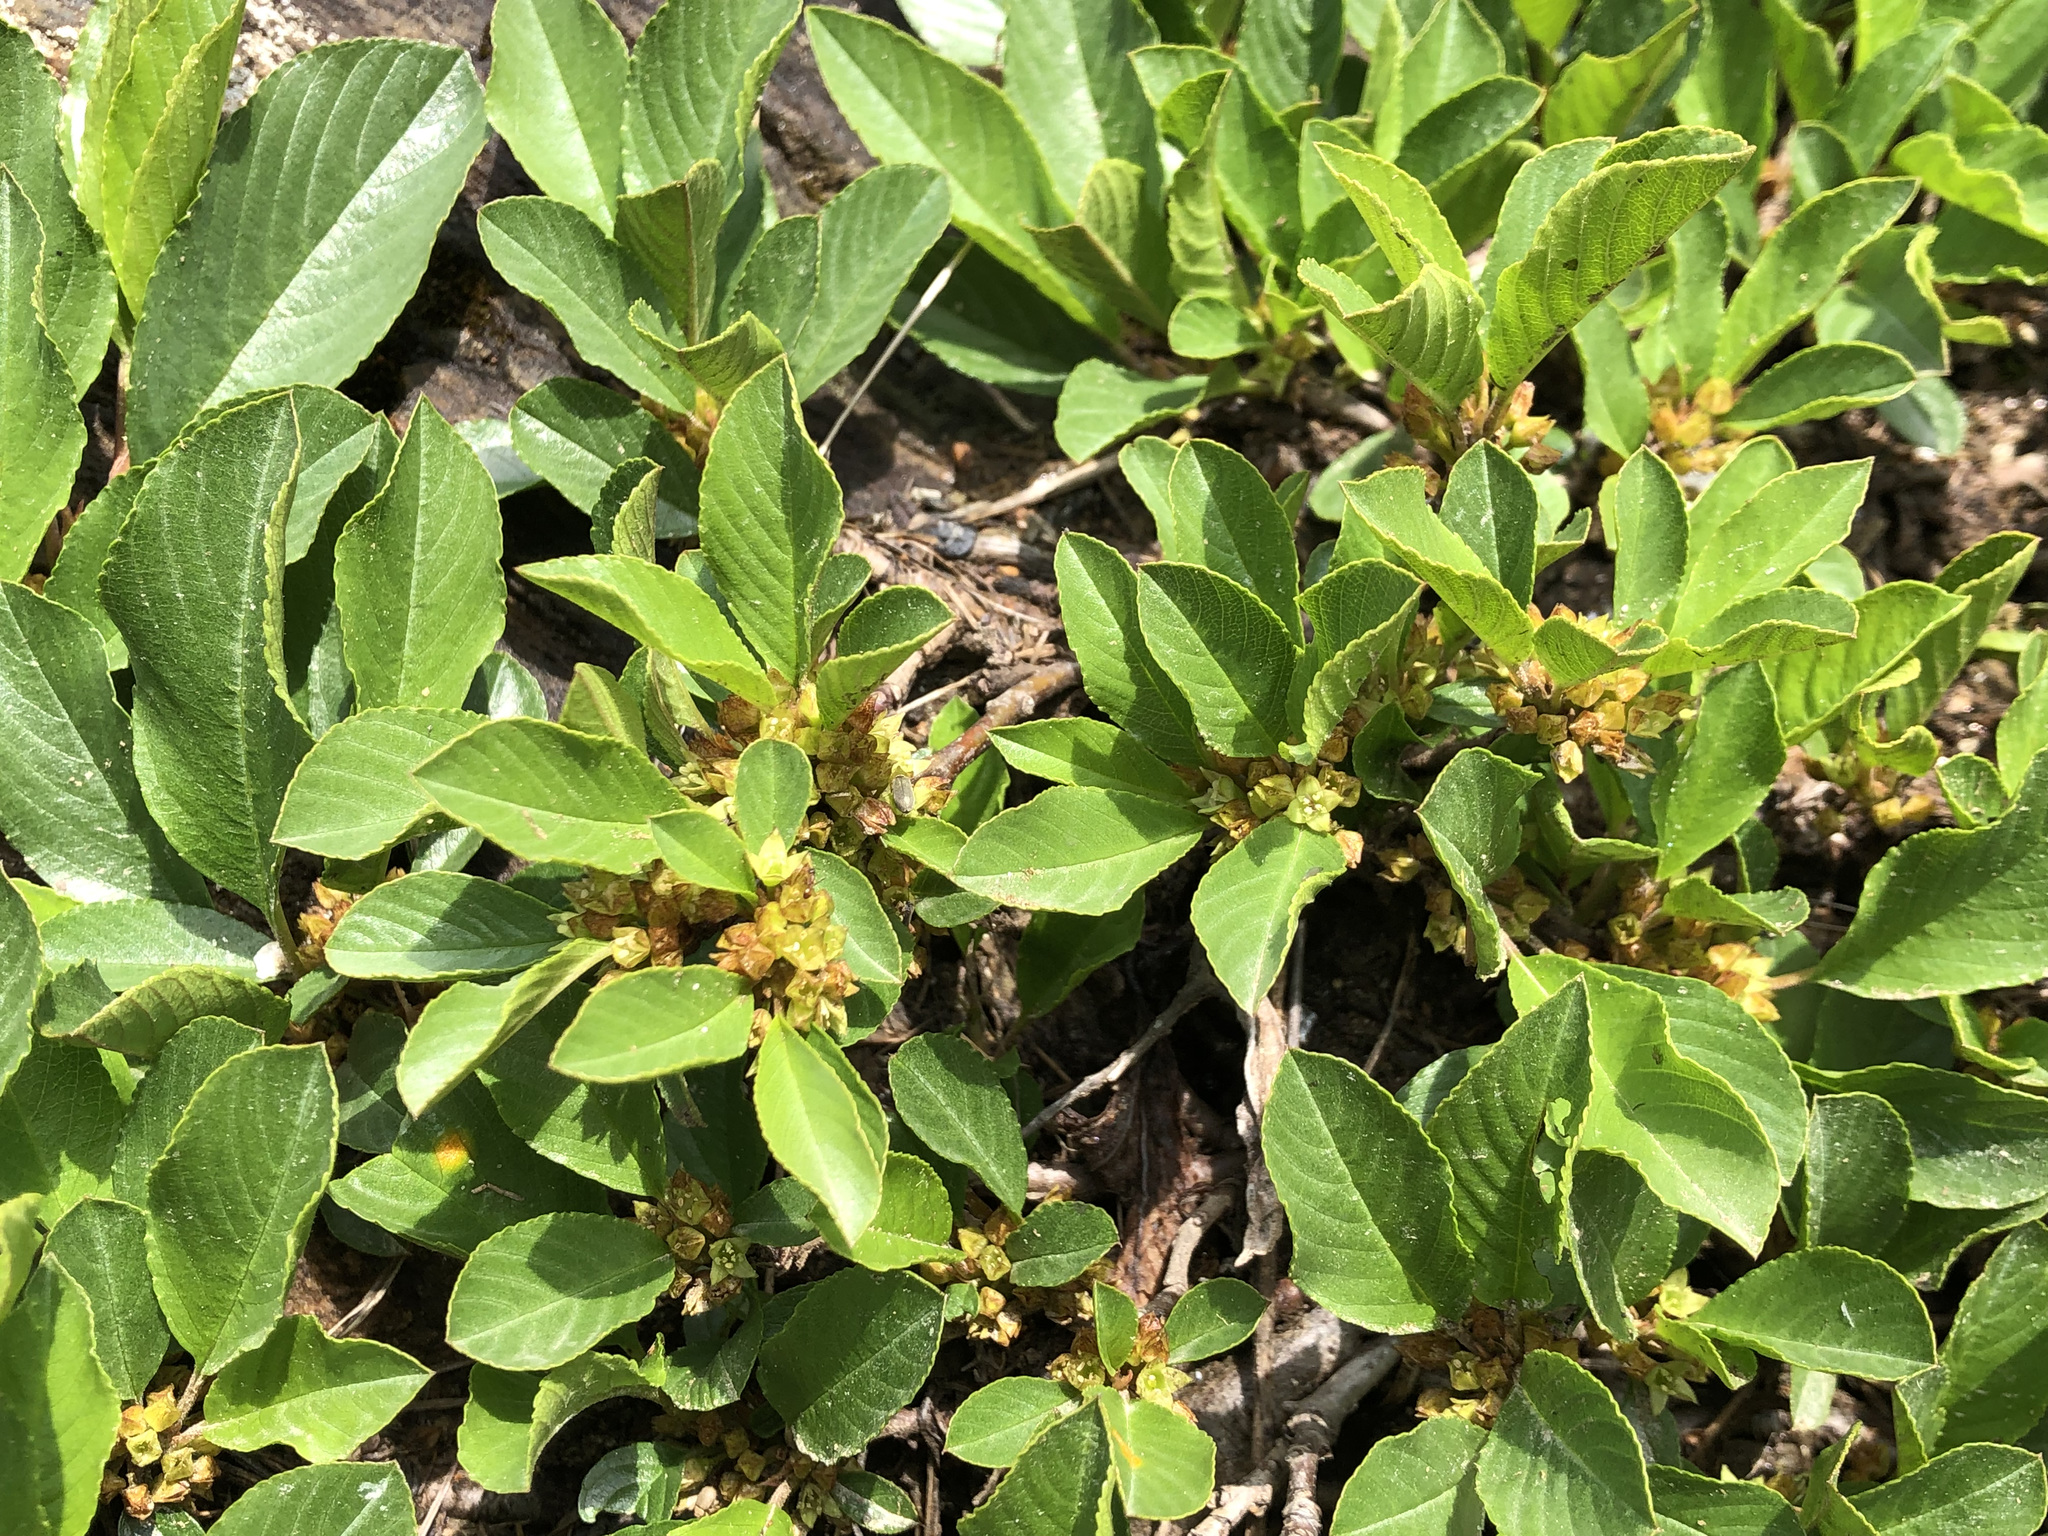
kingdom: Plantae
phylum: Tracheophyta
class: Magnoliopsida
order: Rosales
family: Rhamnaceae
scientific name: Rhamnaceae
